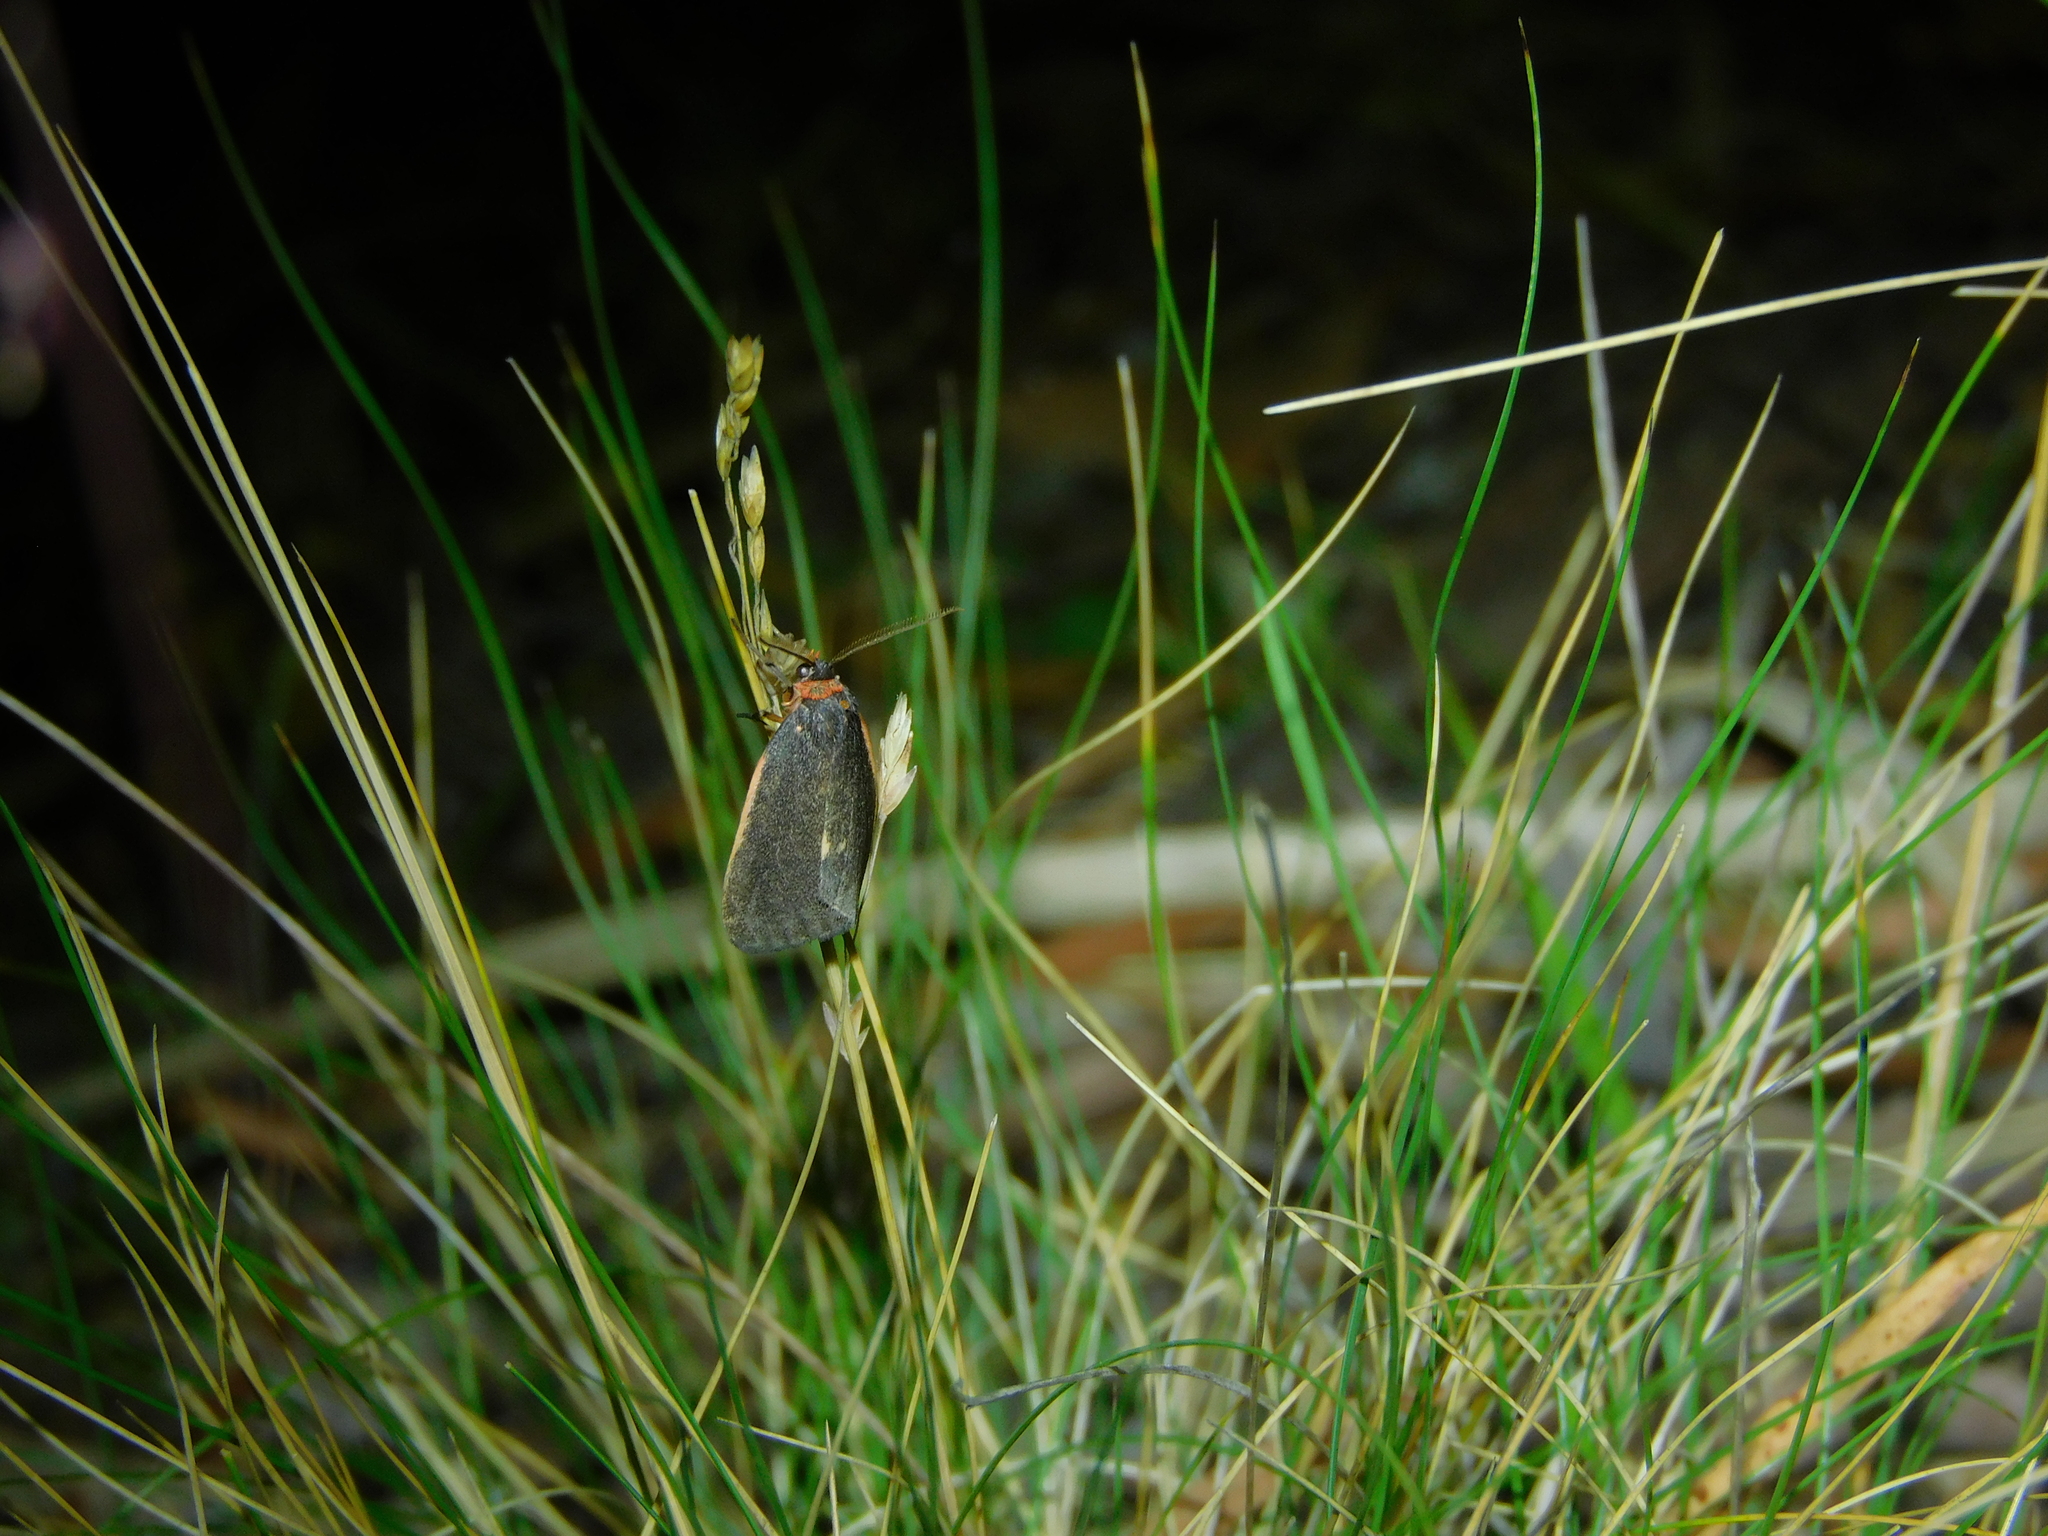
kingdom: Animalia
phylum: Arthropoda
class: Insecta
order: Lepidoptera
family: Erebidae
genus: Castulo
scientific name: Castulo doubledayi
